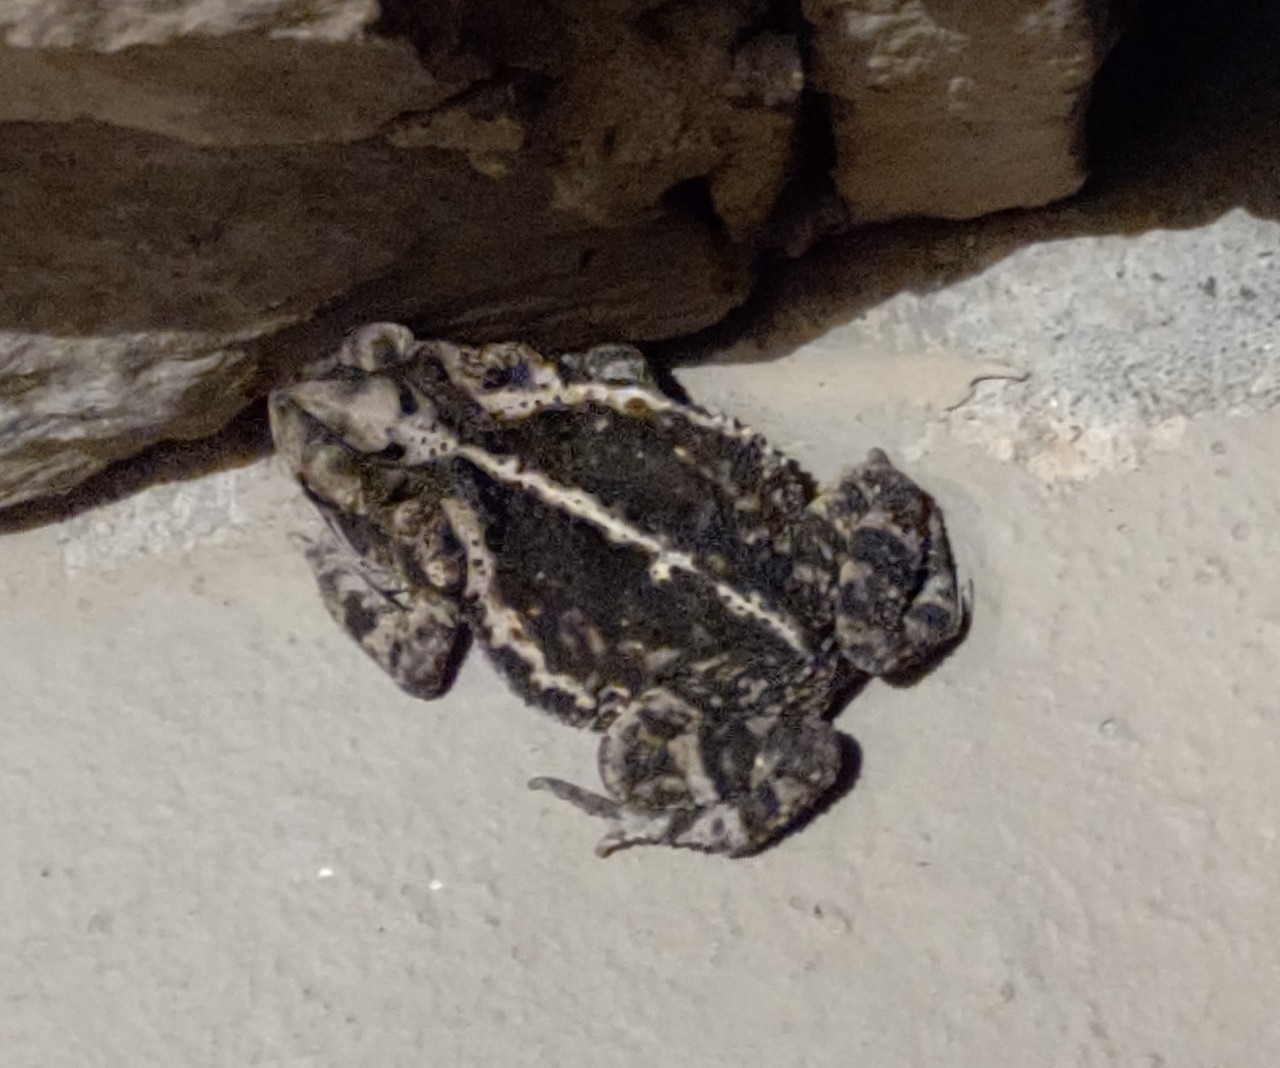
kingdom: Animalia
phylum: Chordata
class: Amphibia
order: Anura
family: Bufonidae
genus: Incilius
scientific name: Incilius nebulifer
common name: Gulf coast toad
